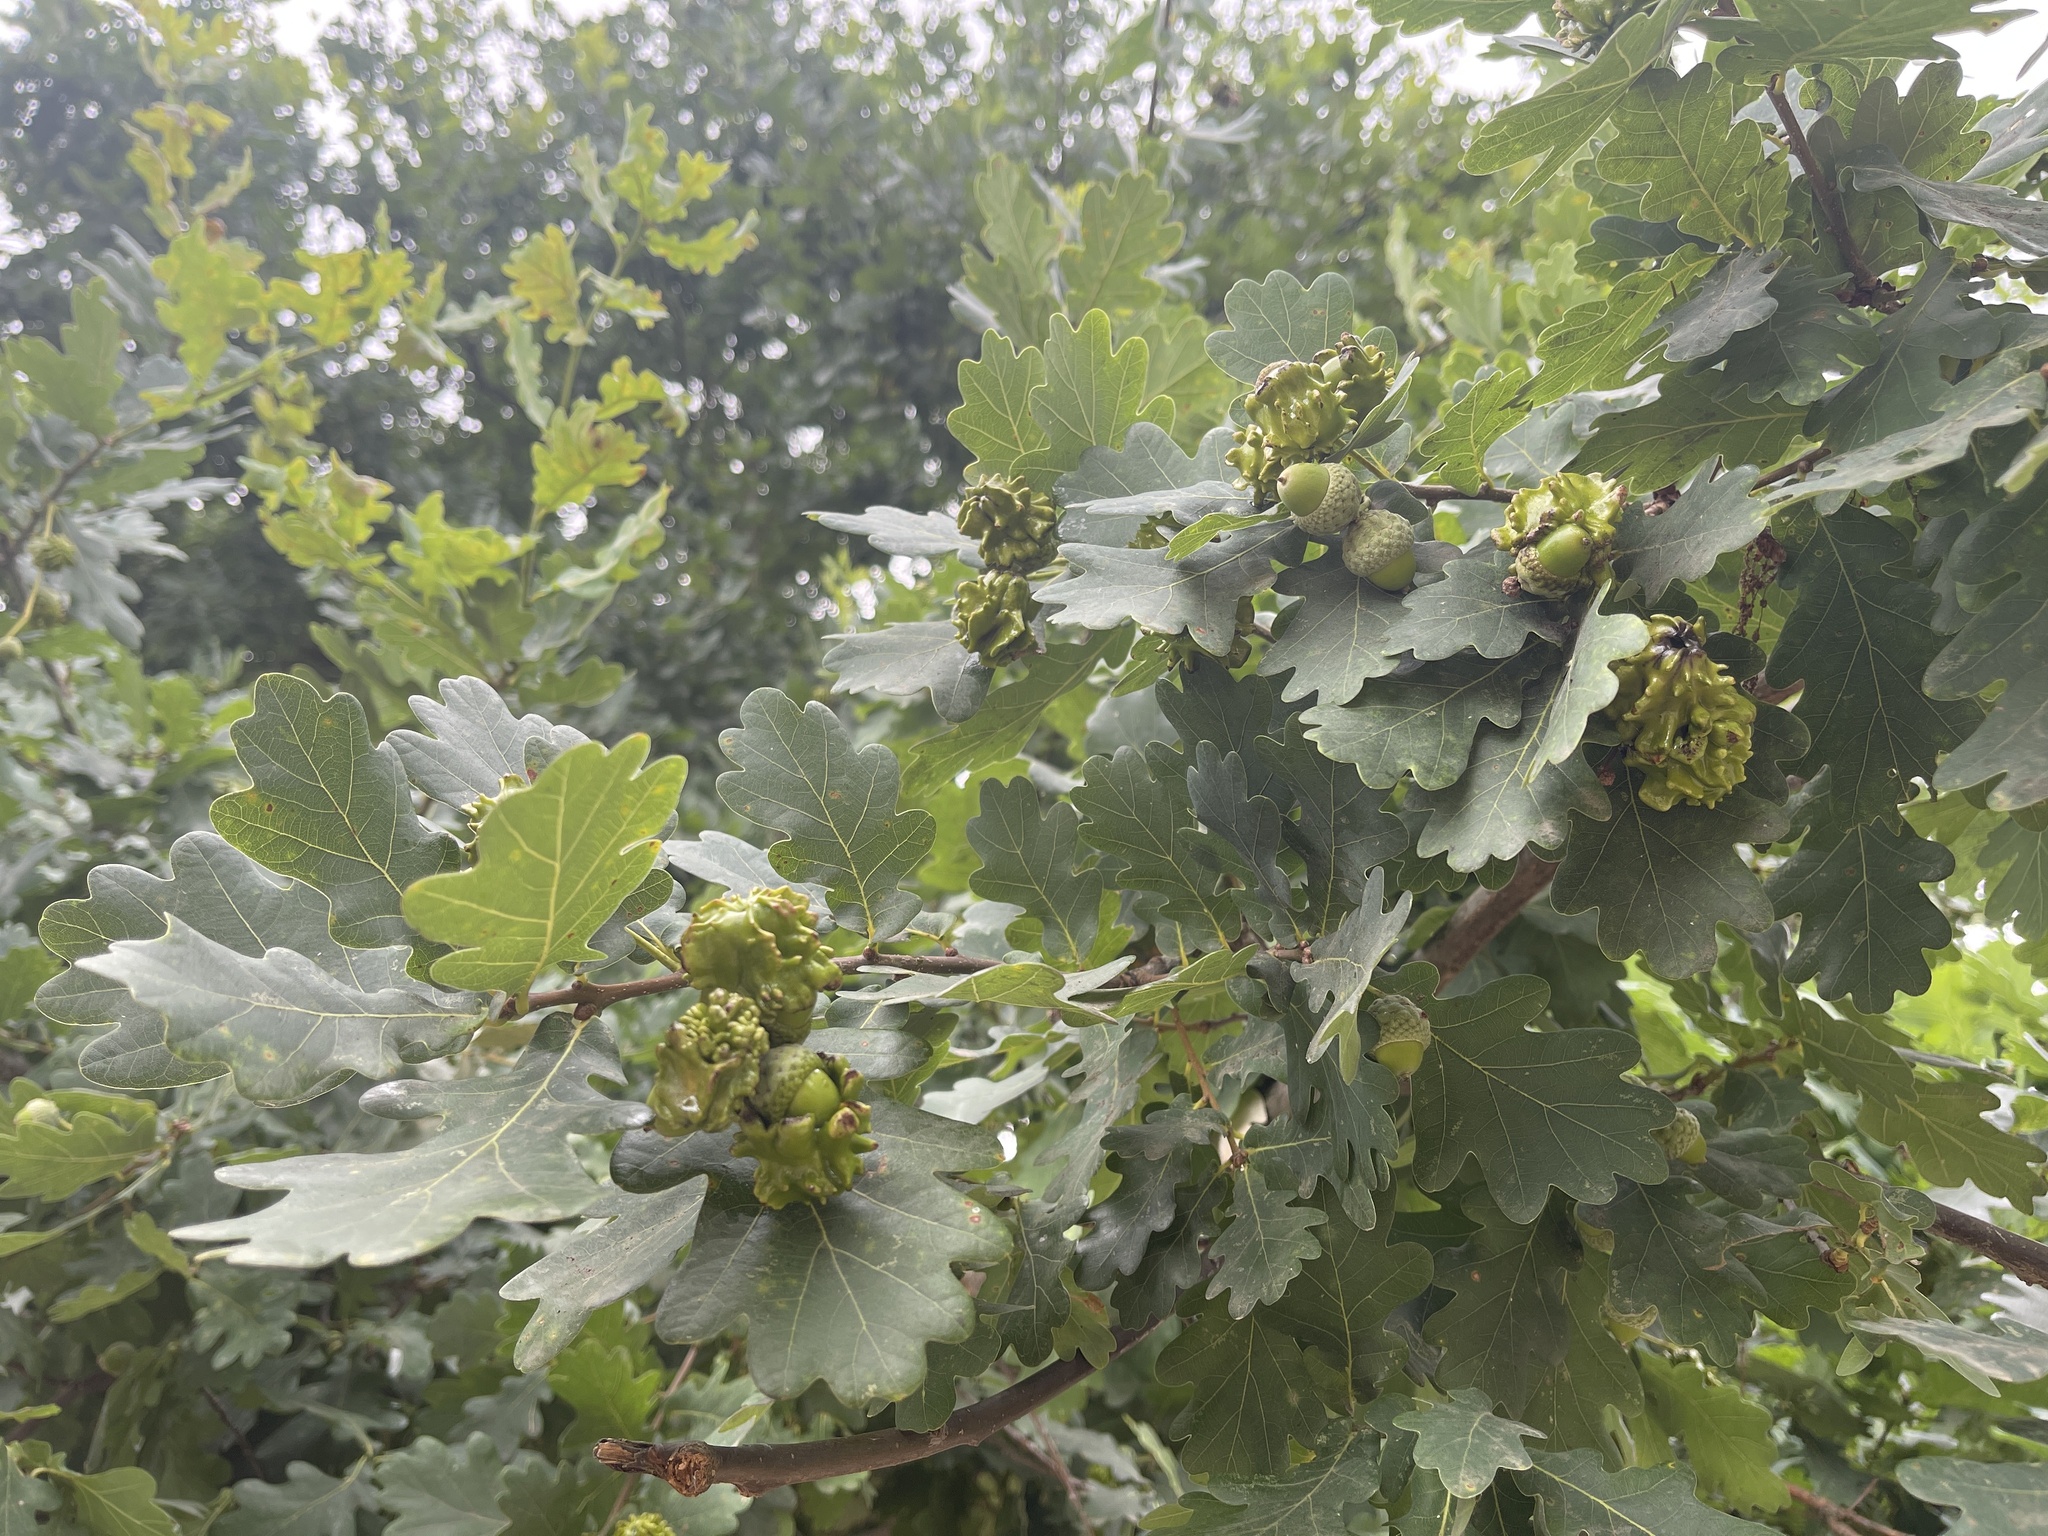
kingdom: Animalia
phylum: Arthropoda
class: Insecta
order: Hymenoptera
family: Cynipidae
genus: Andricus
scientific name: Andricus quercuscalicis
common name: Knopper gall
